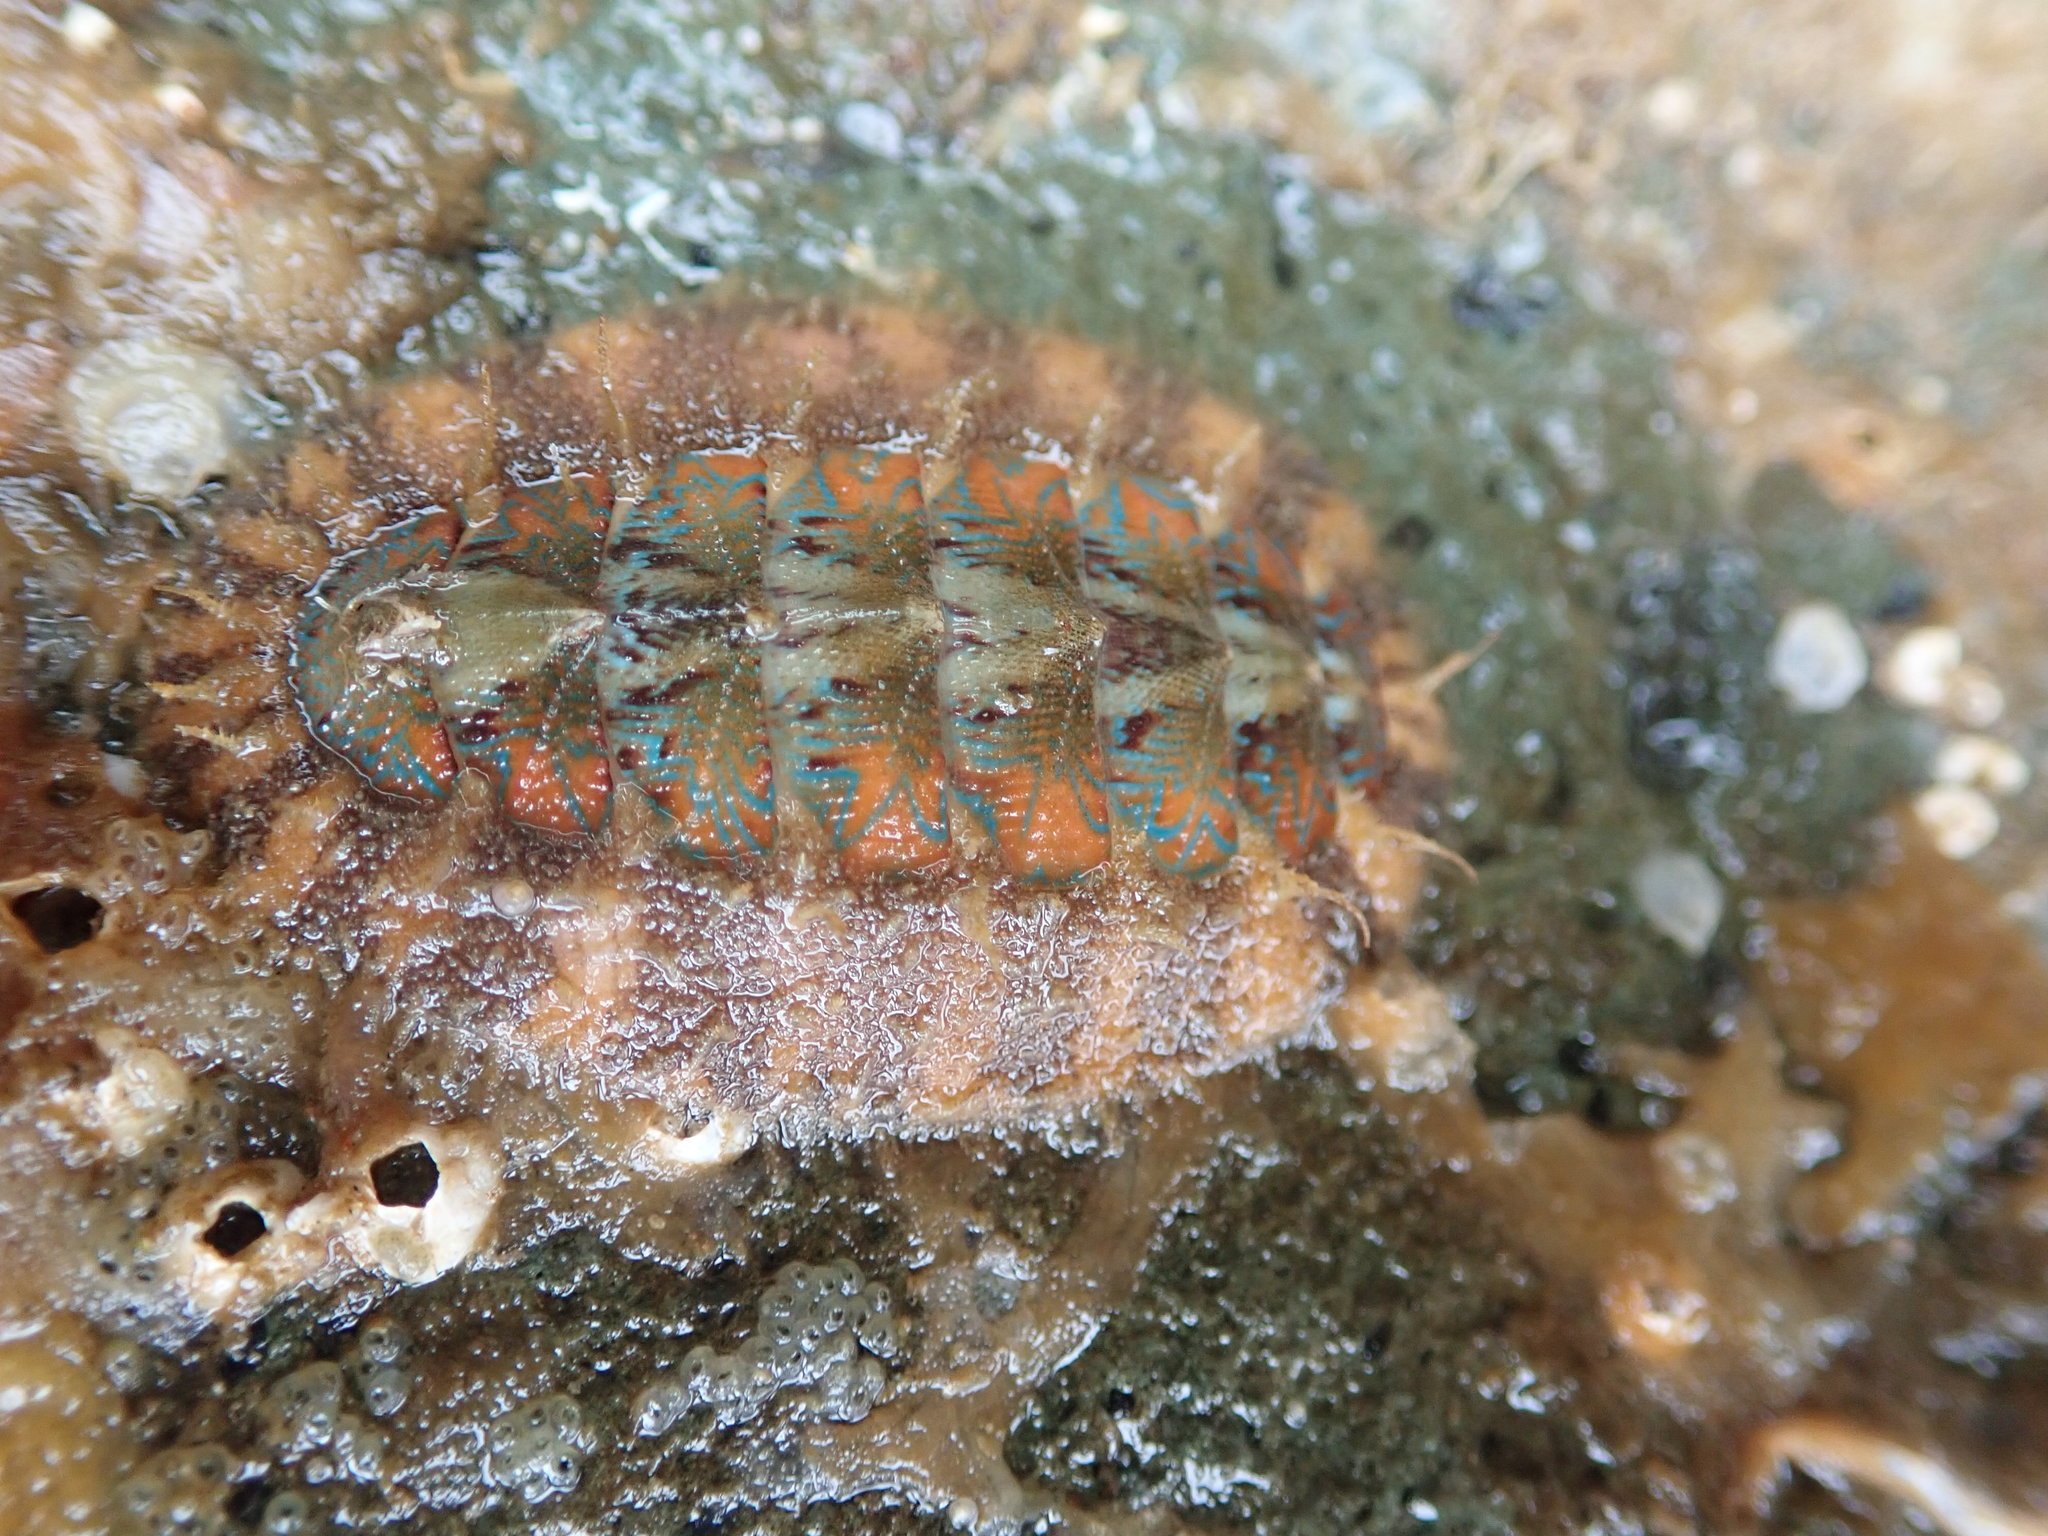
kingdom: Animalia
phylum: Mollusca
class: Polyplacophora
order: Chitonida
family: Mopaliidae
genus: Mopalia
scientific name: Mopalia spectabilis
